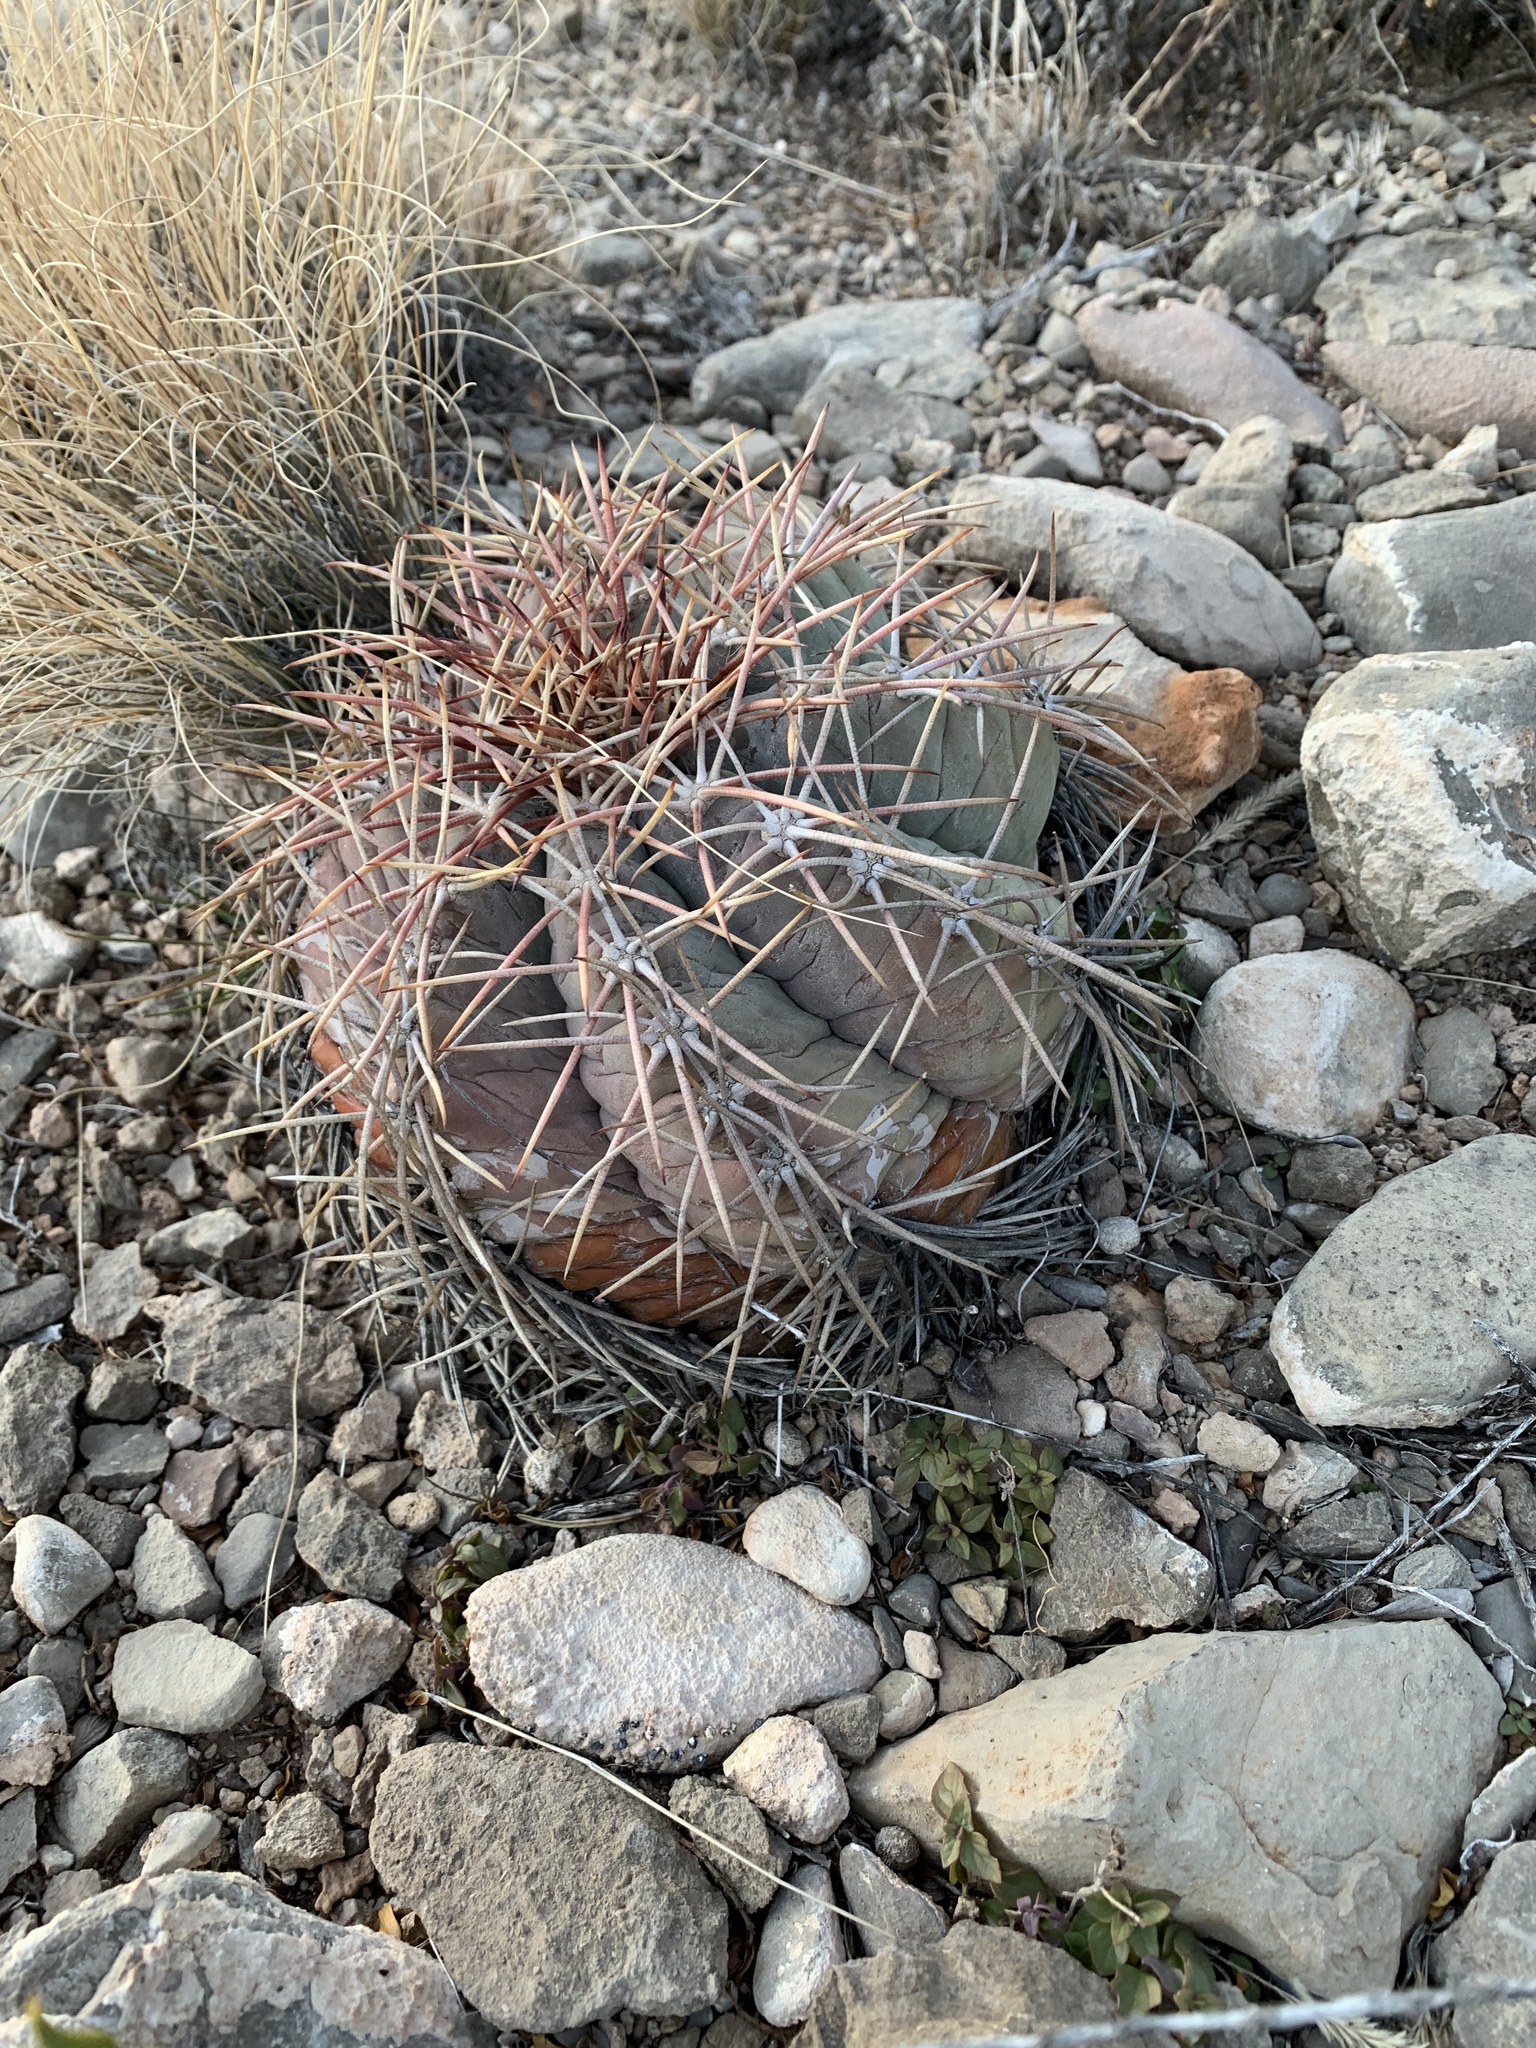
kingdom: Plantae
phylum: Tracheophyta
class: Magnoliopsida
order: Caryophyllales
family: Cactaceae
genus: Echinocactus
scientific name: Echinocactus horizonthalonius
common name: Devilshead
